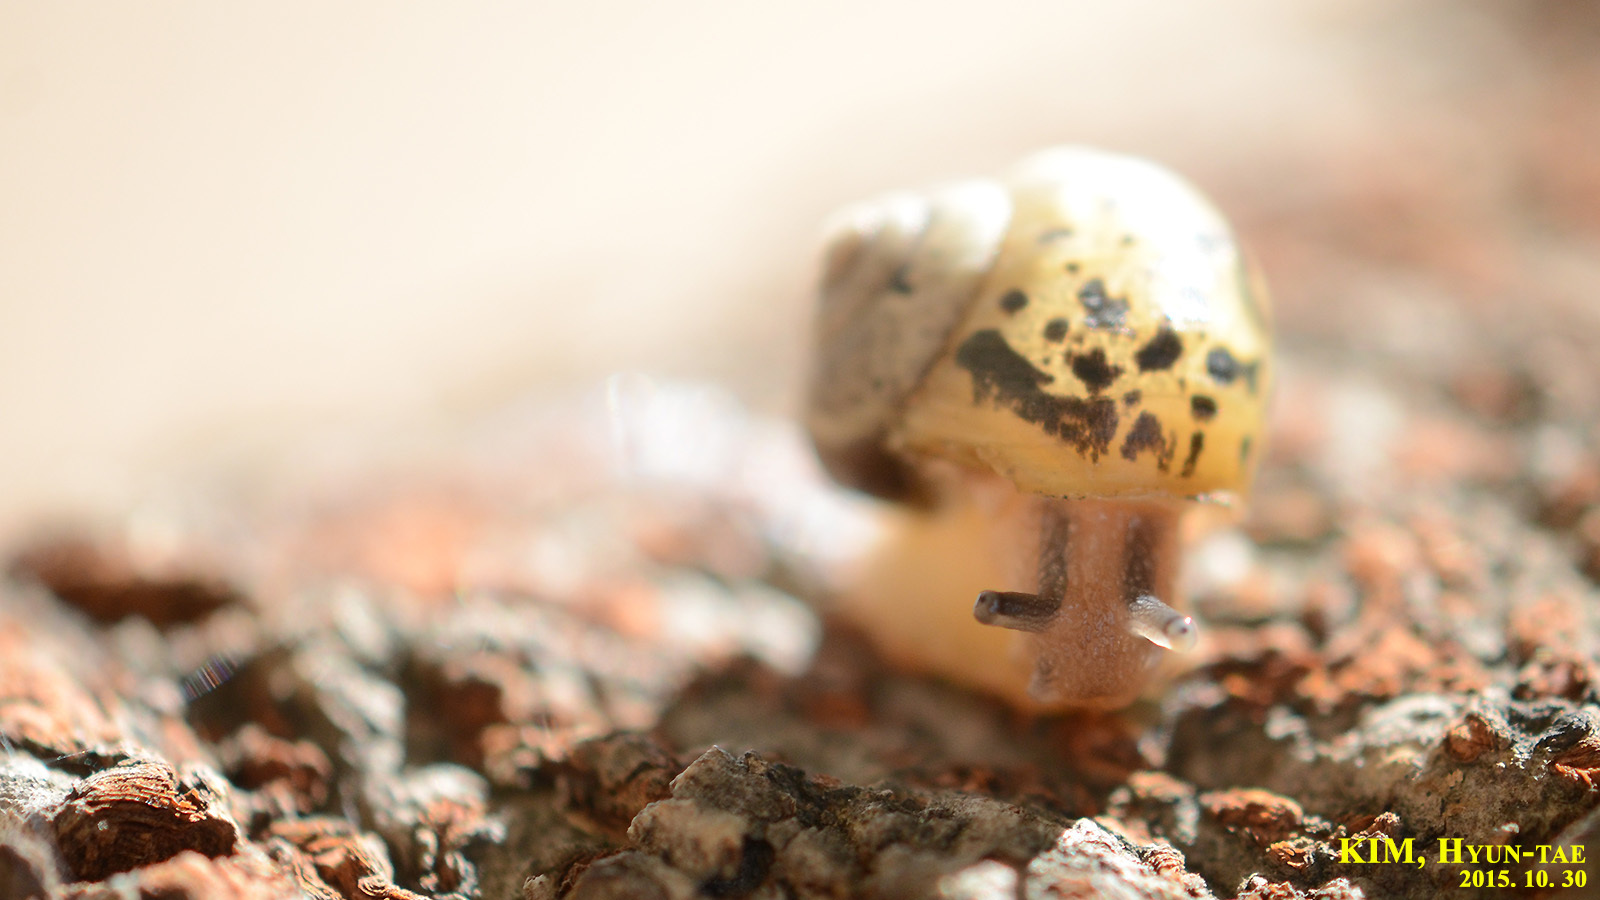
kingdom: Animalia
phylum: Mollusca
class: Gastropoda
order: Stylommatophora
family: Camaenidae
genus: Acusta
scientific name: Acusta redfieldi
